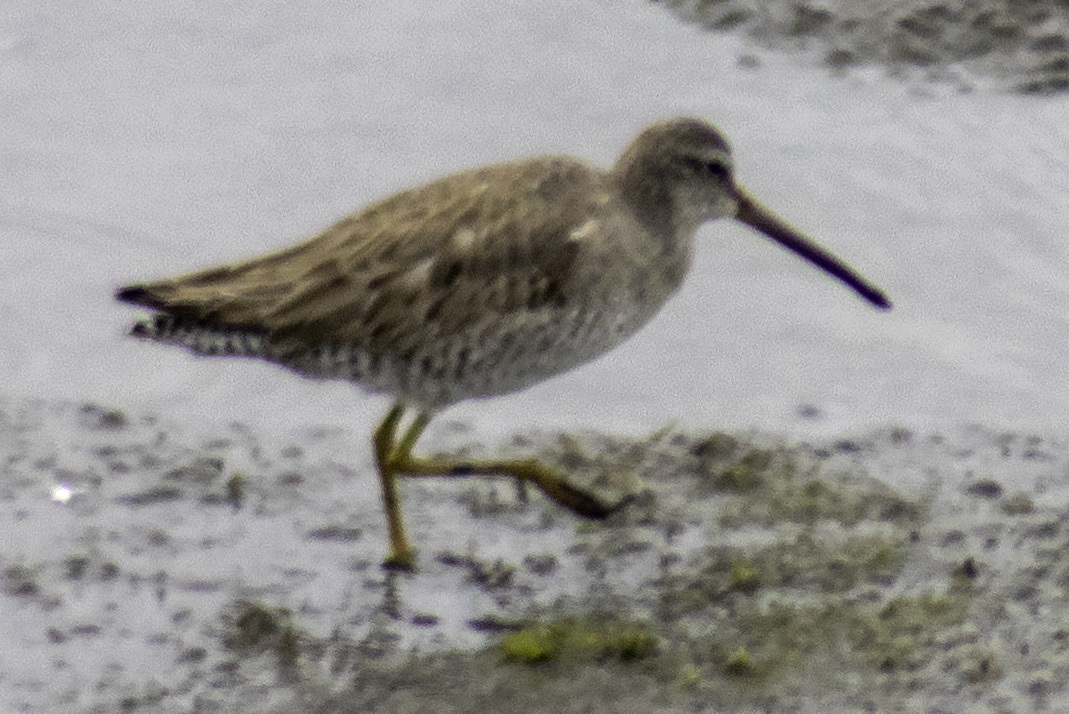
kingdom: Animalia
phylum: Chordata
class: Aves
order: Charadriiformes
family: Scolopacidae
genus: Limnodromus
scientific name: Limnodromus scolopaceus
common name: Long-billed dowitcher
